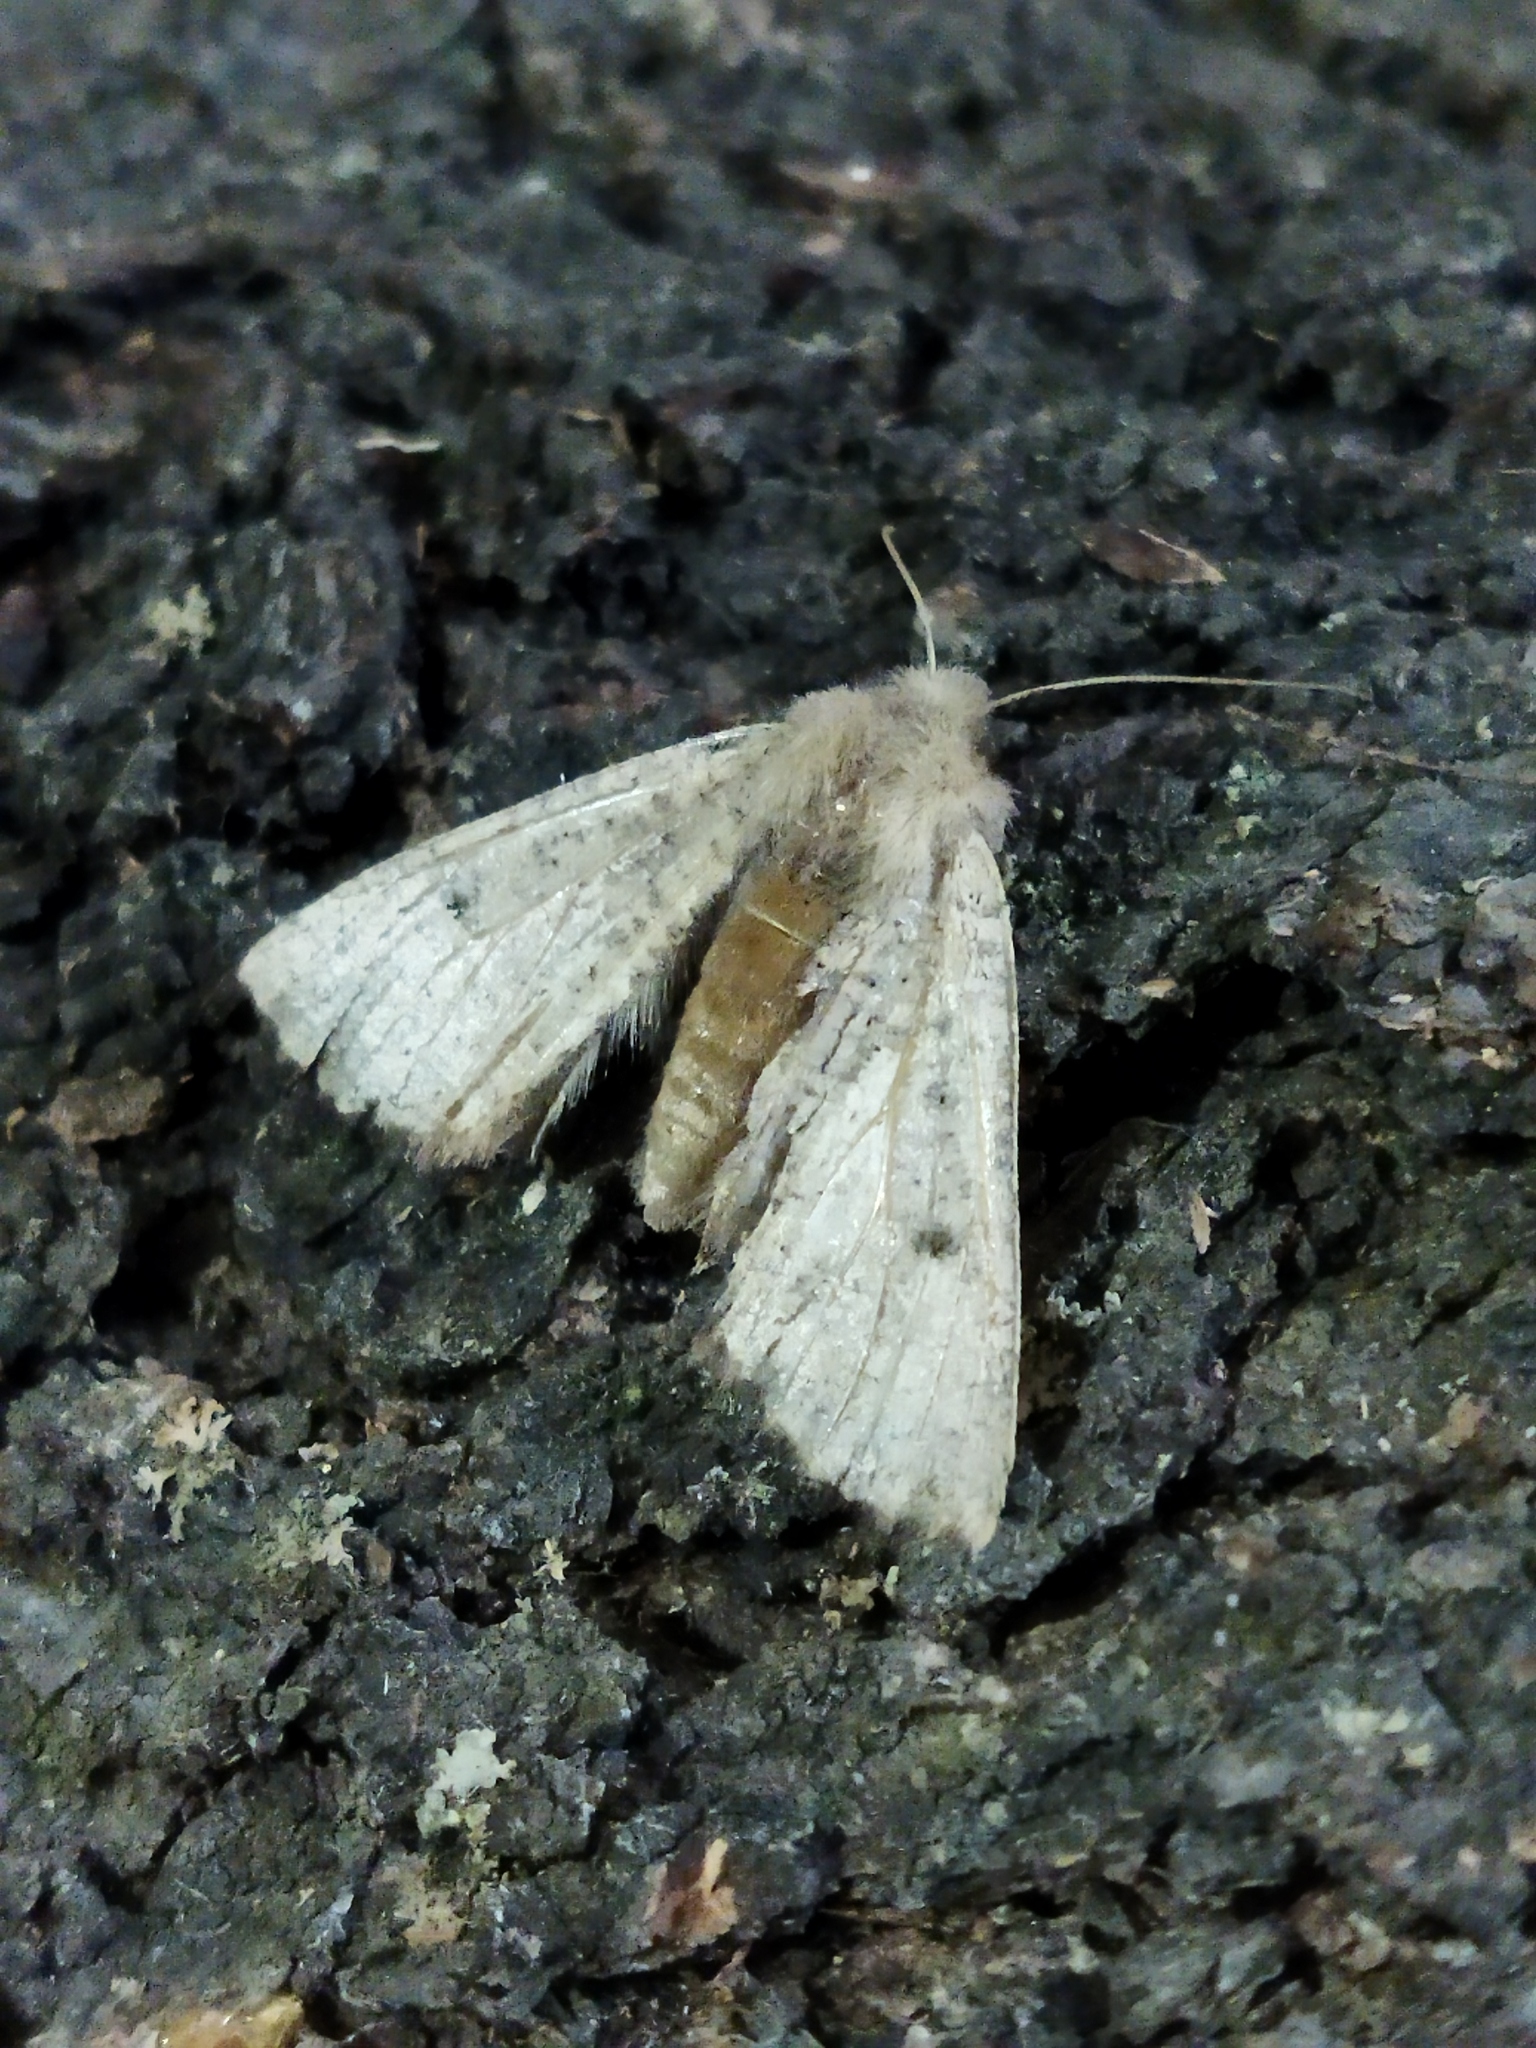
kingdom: Animalia
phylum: Arthropoda
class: Insecta
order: Lepidoptera
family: Geometridae
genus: Dasycorsa
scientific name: Dasycorsa modesta
